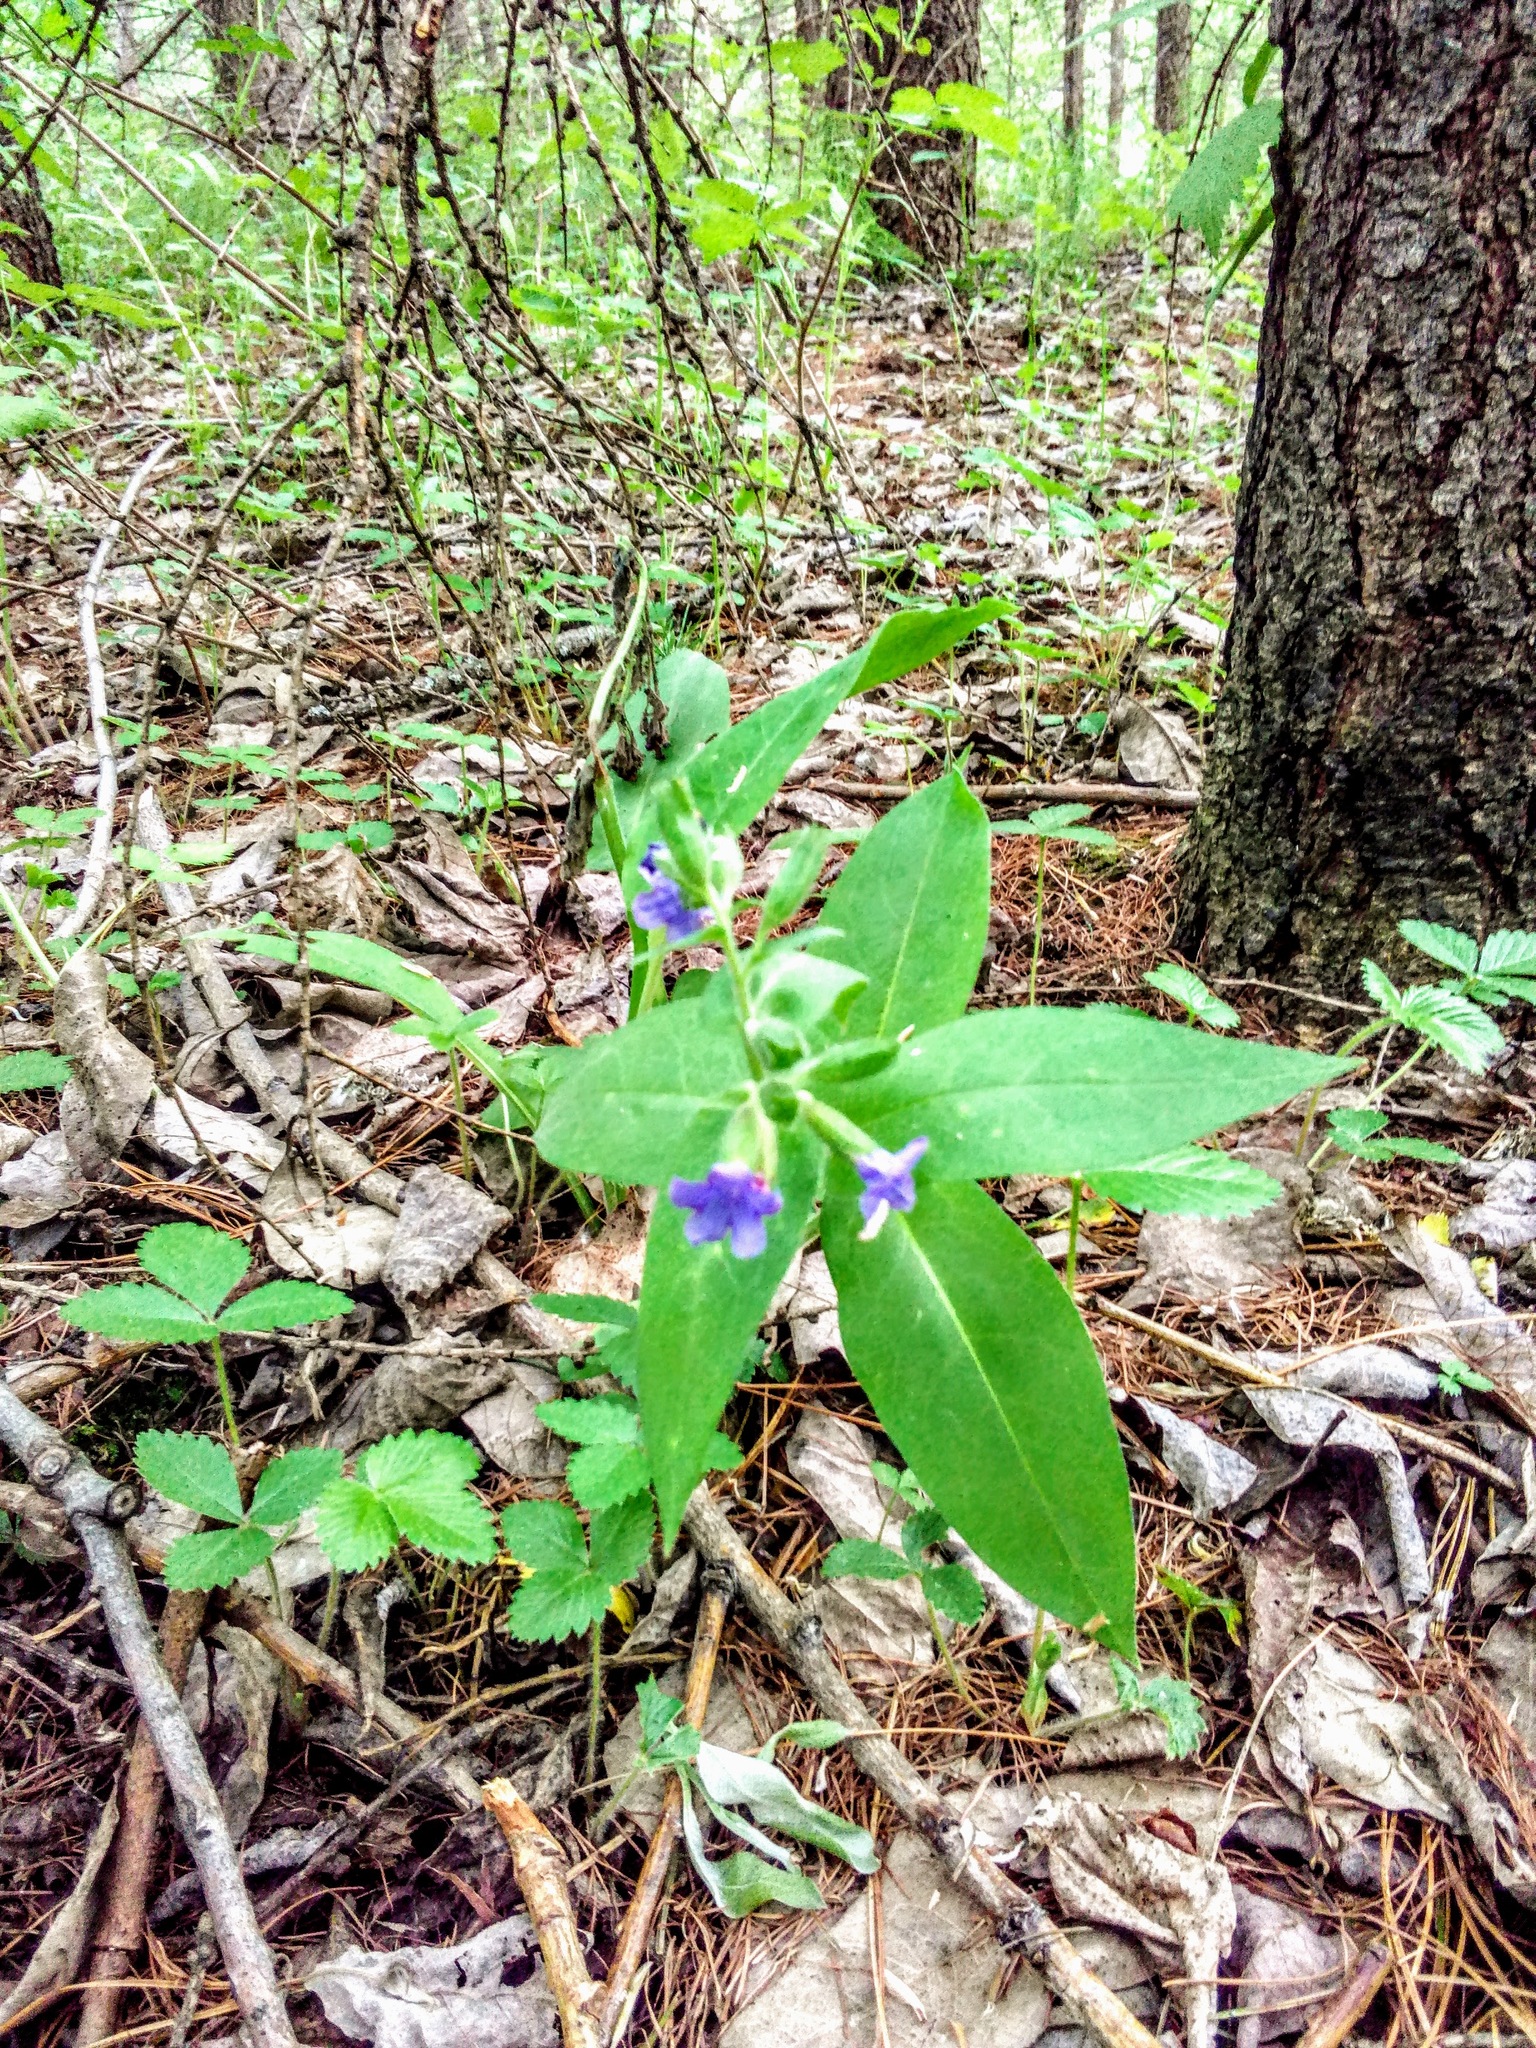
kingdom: Plantae
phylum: Tracheophyta
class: Magnoliopsida
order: Boraginales
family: Boraginaceae
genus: Pulmonaria
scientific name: Pulmonaria mollis
